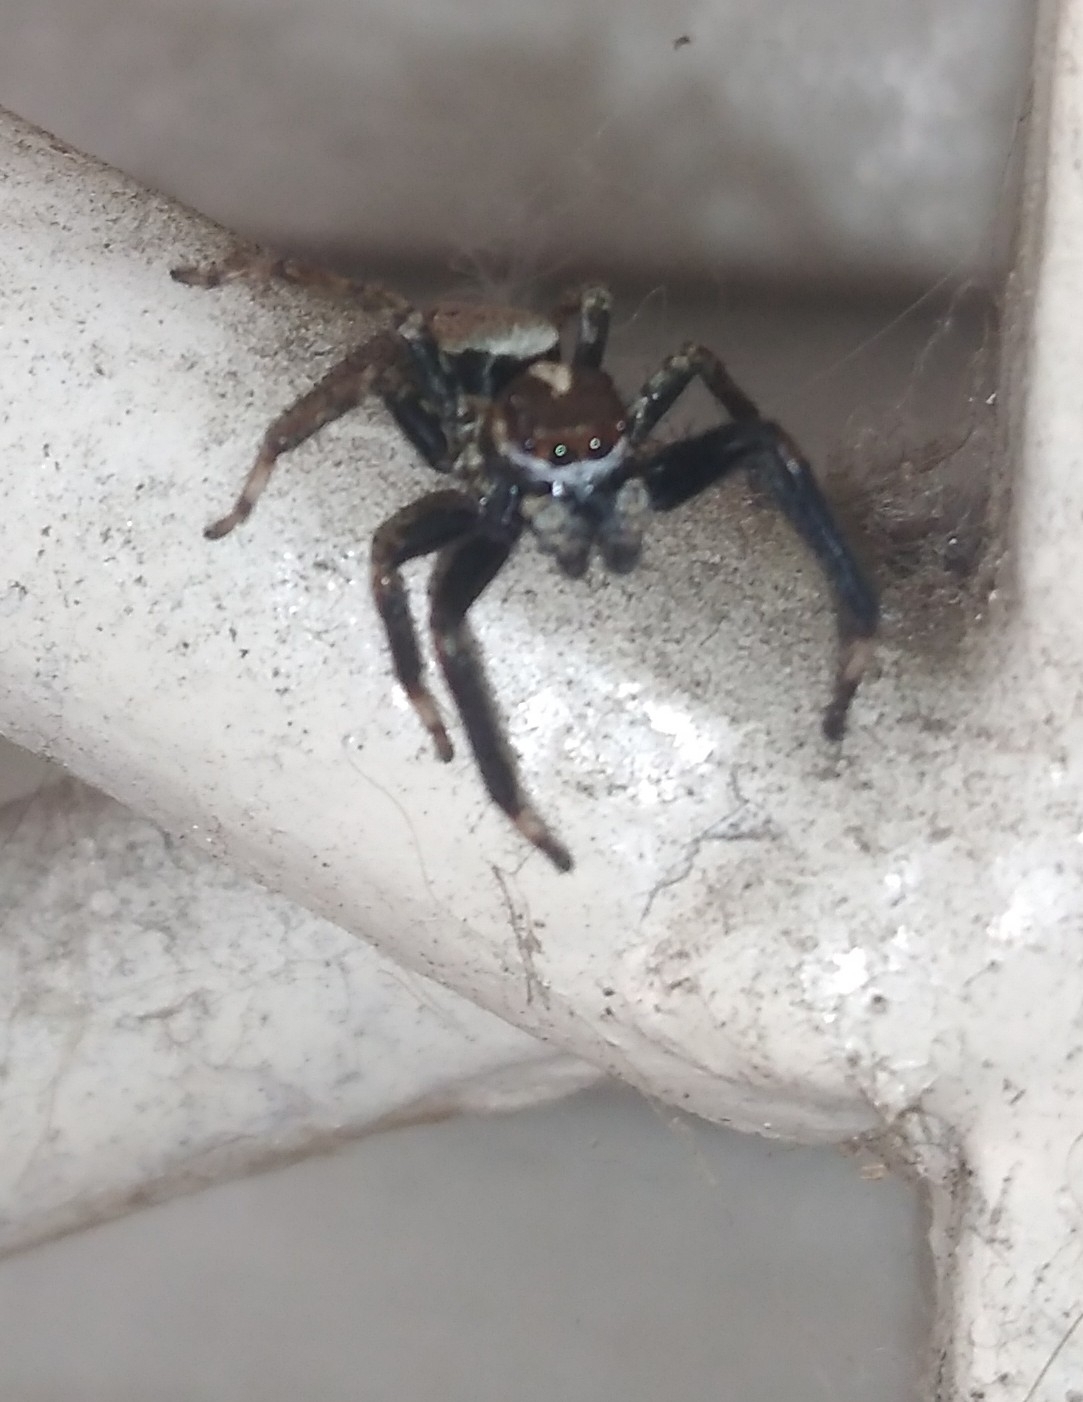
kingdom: Animalia
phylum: Arthropoda
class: Arachnida
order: Araneae
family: Salticidae
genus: Asaphobelis
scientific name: Asaphobelis physonychus
